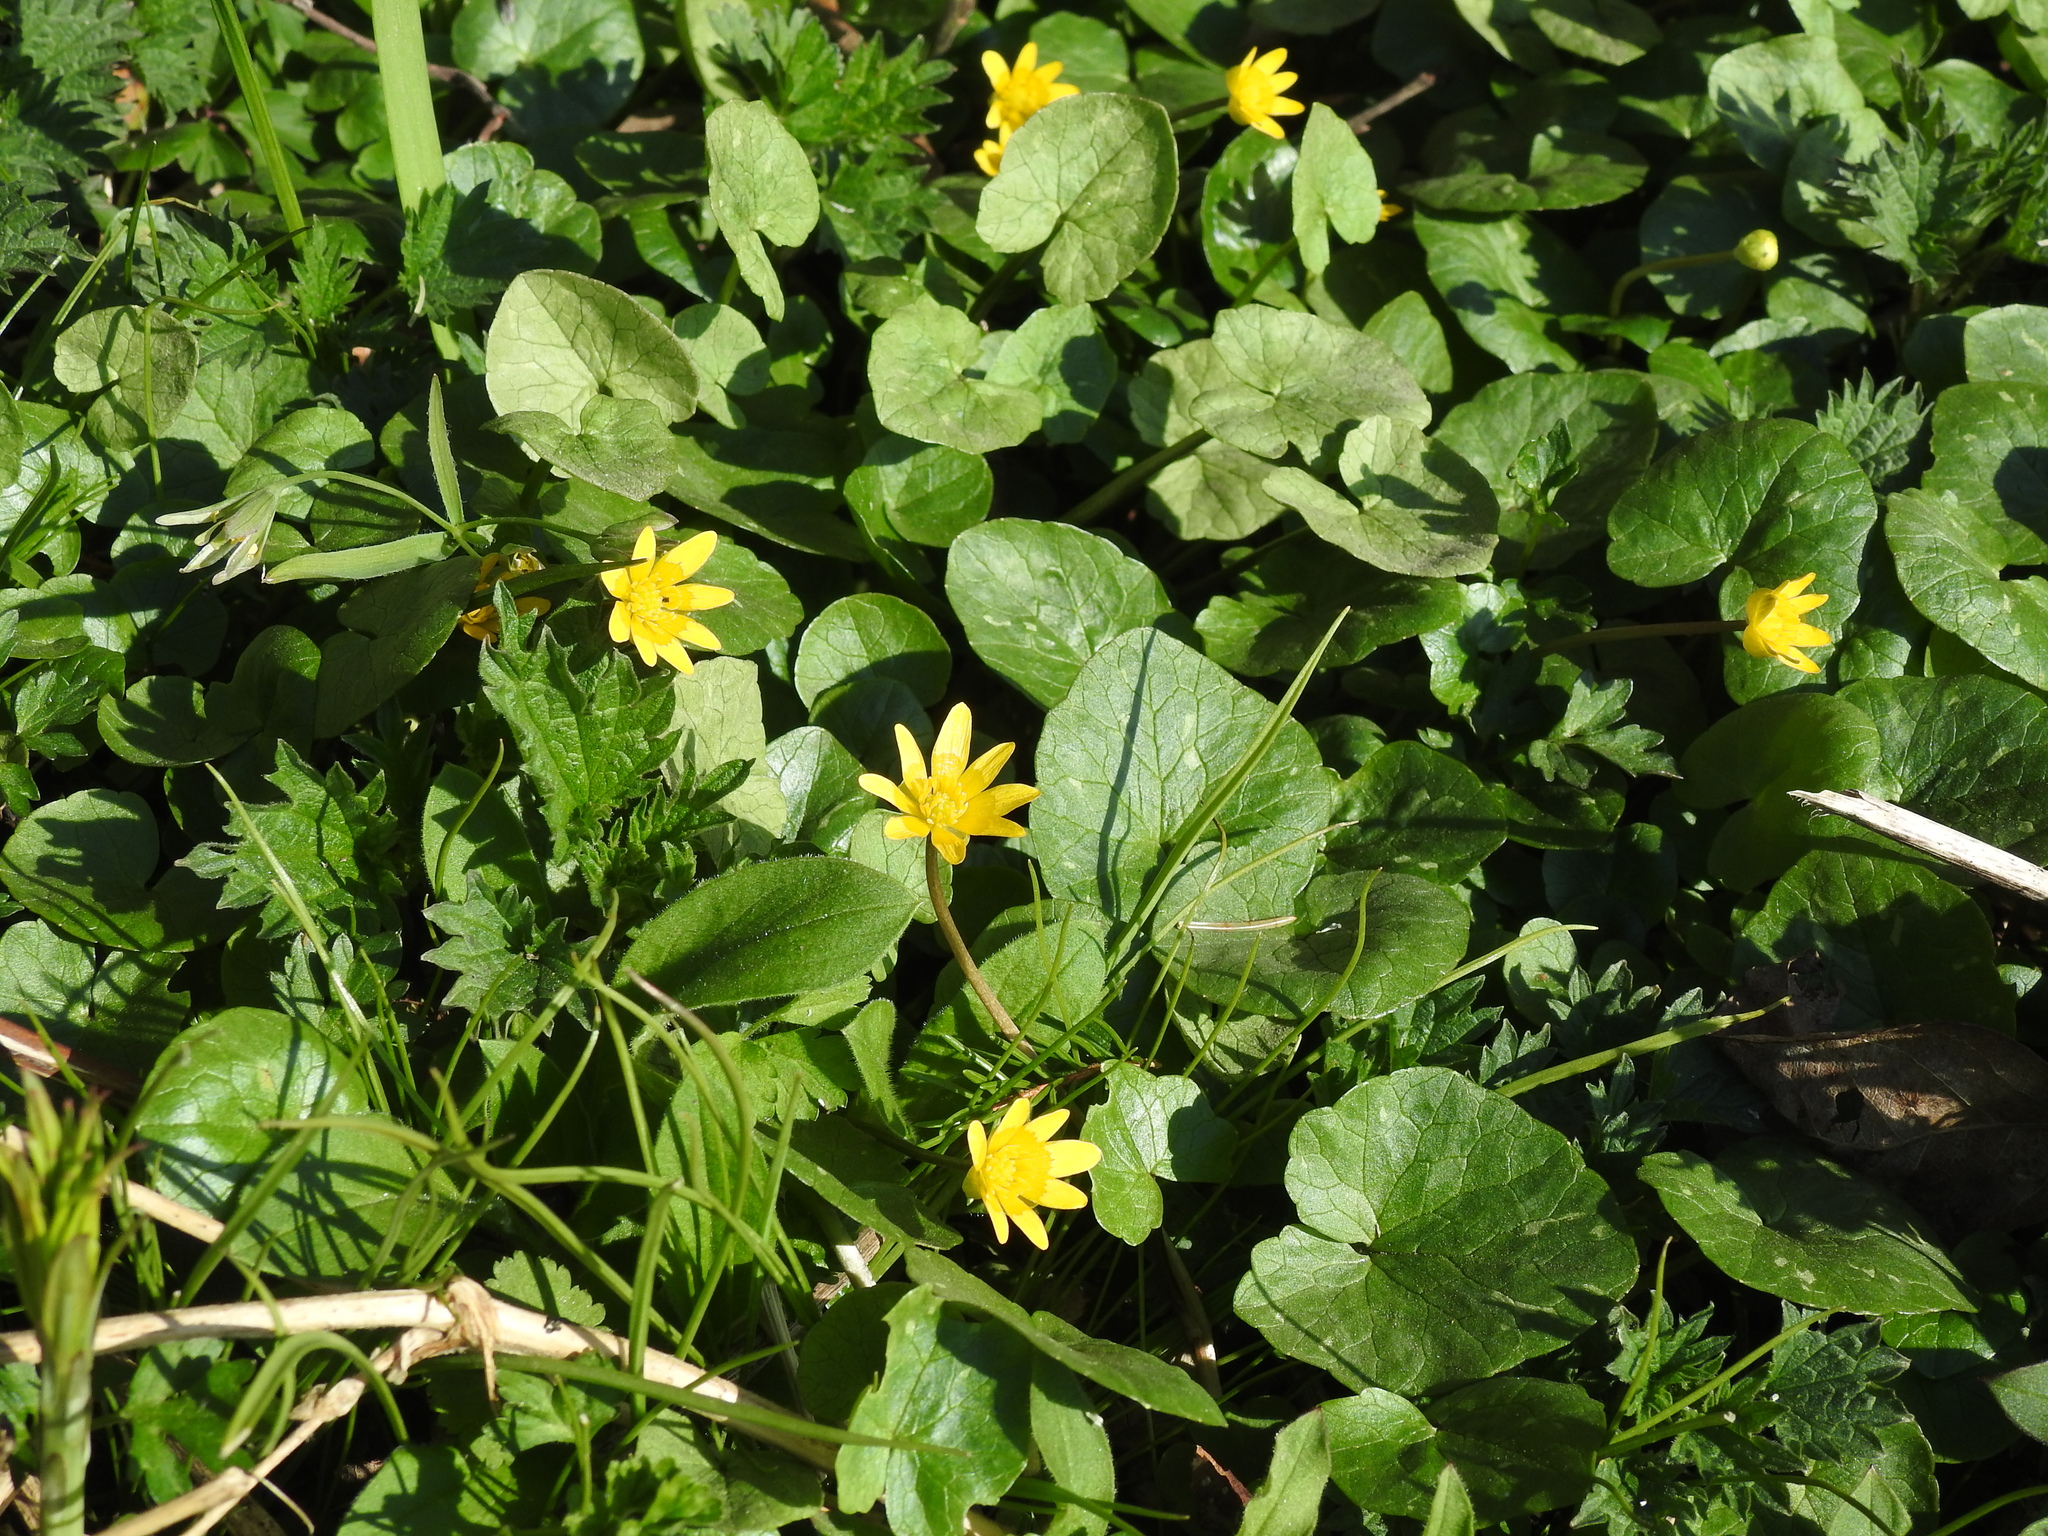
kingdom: Plantae
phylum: Tracheophyta
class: Magnoliopsida
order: Ranunculales
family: Ranunculaceae
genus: Ficaria
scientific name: Ficaria verna
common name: Lesser celandine
